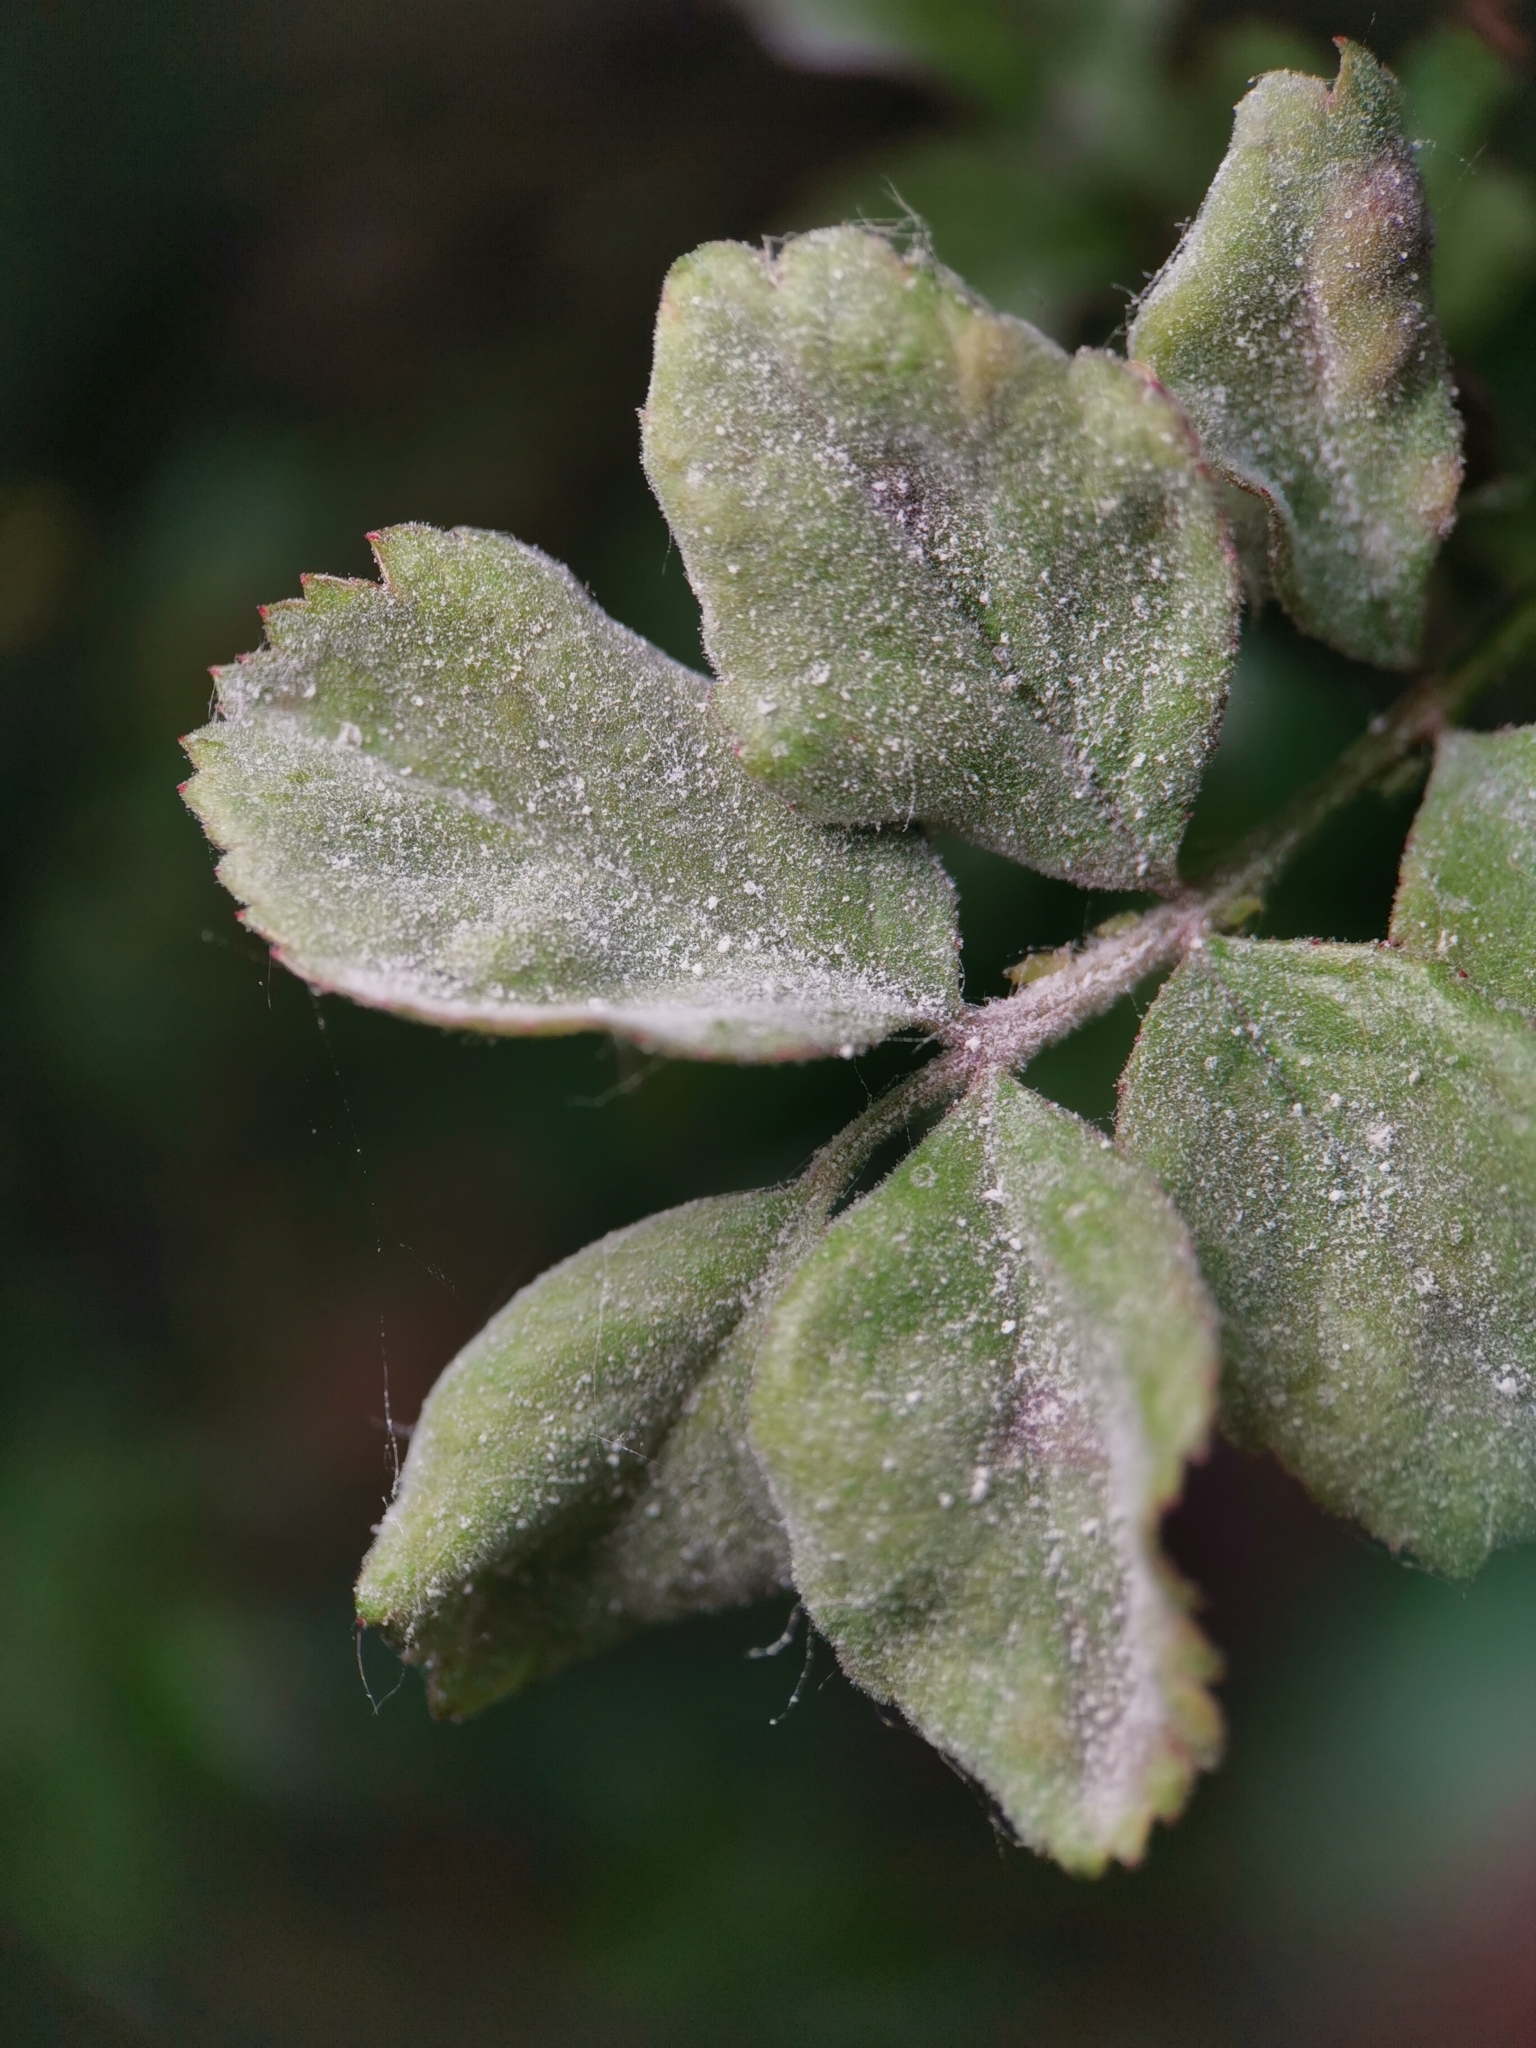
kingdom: Fungi
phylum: Ascomycota
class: Leotiomycetes
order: Helotiales
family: Erysiphaceae
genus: Podosphaera
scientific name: Podosphaera pannosa
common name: Rose mildew
